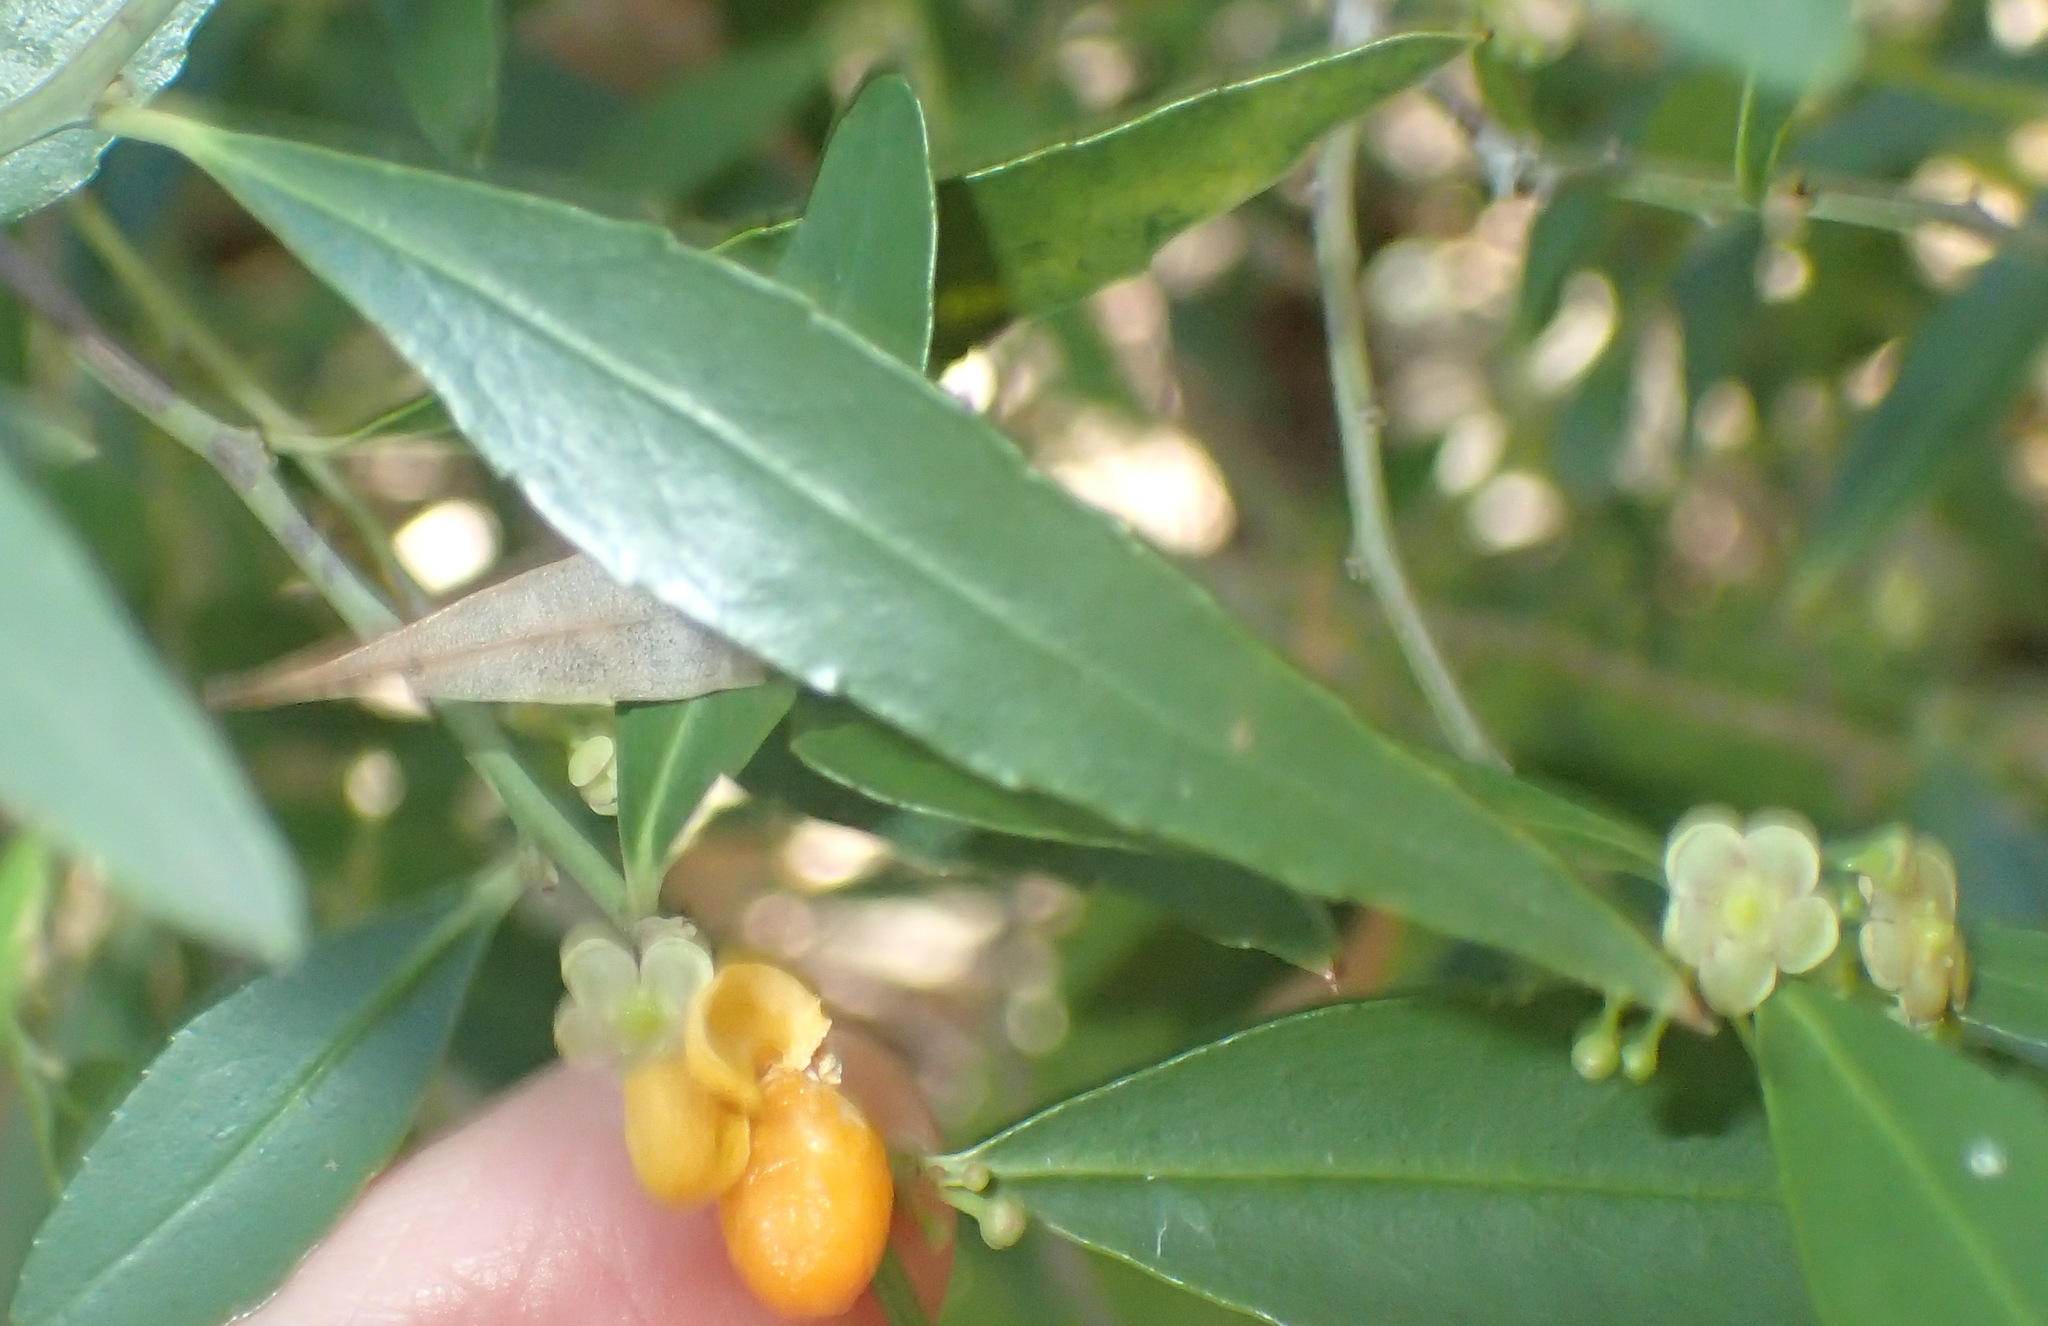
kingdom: Plantae
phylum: Tracheophyta
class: Magnoliopsida
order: Celastrales
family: Celastraceae
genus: Gymnosporia
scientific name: Gymnosporia acuminata
